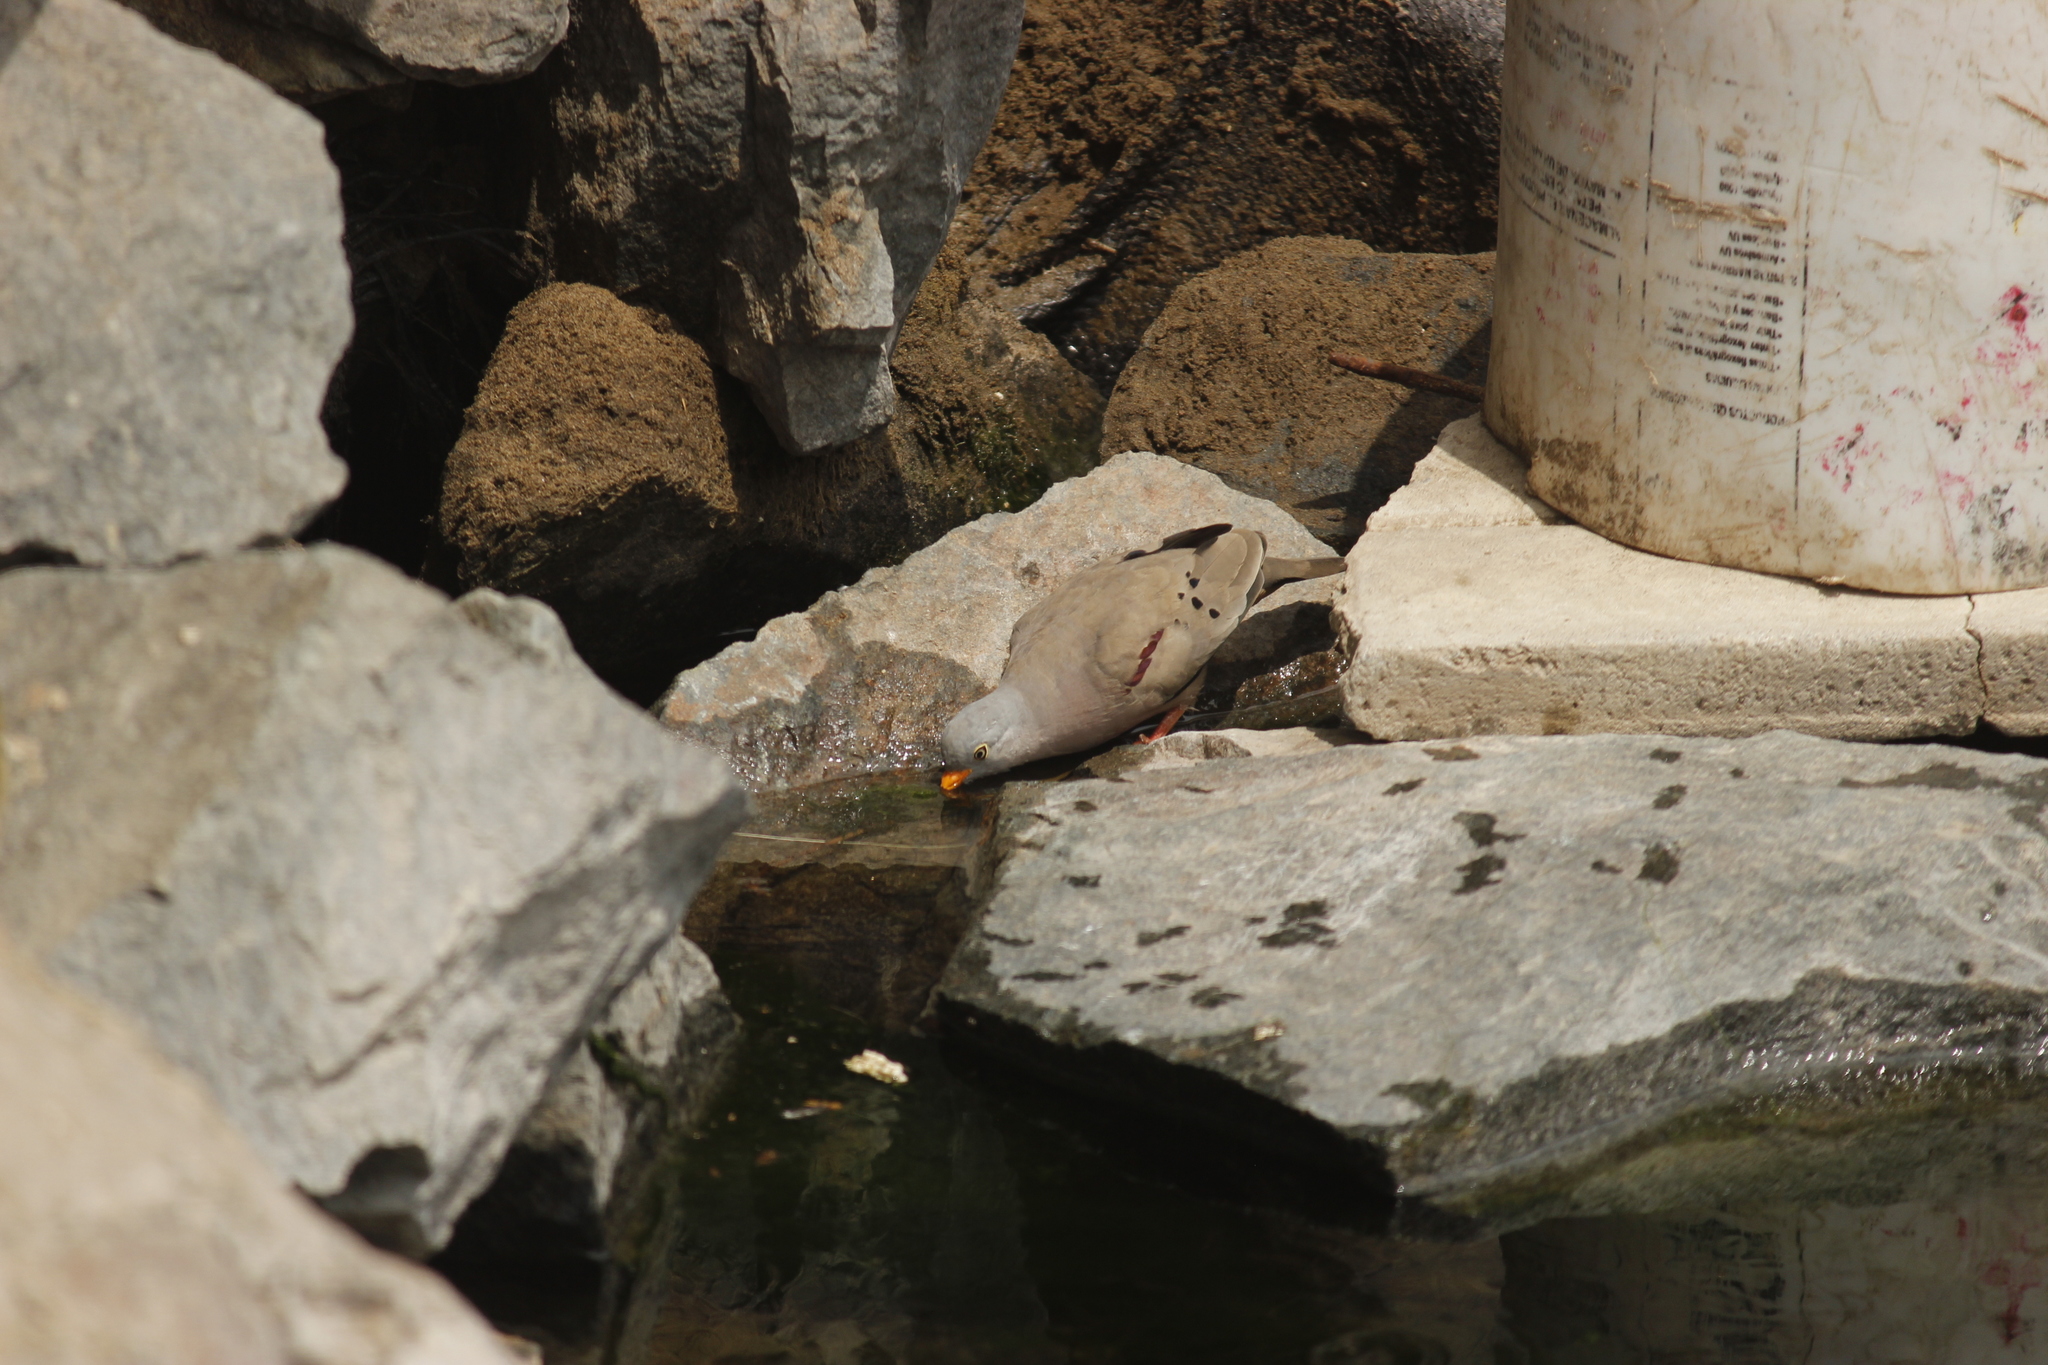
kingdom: Animalia
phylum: Chordata
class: Aves
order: Columbiformes
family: Columbidae
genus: Columbina
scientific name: Columbina cruziana
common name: Croaking ground dove
